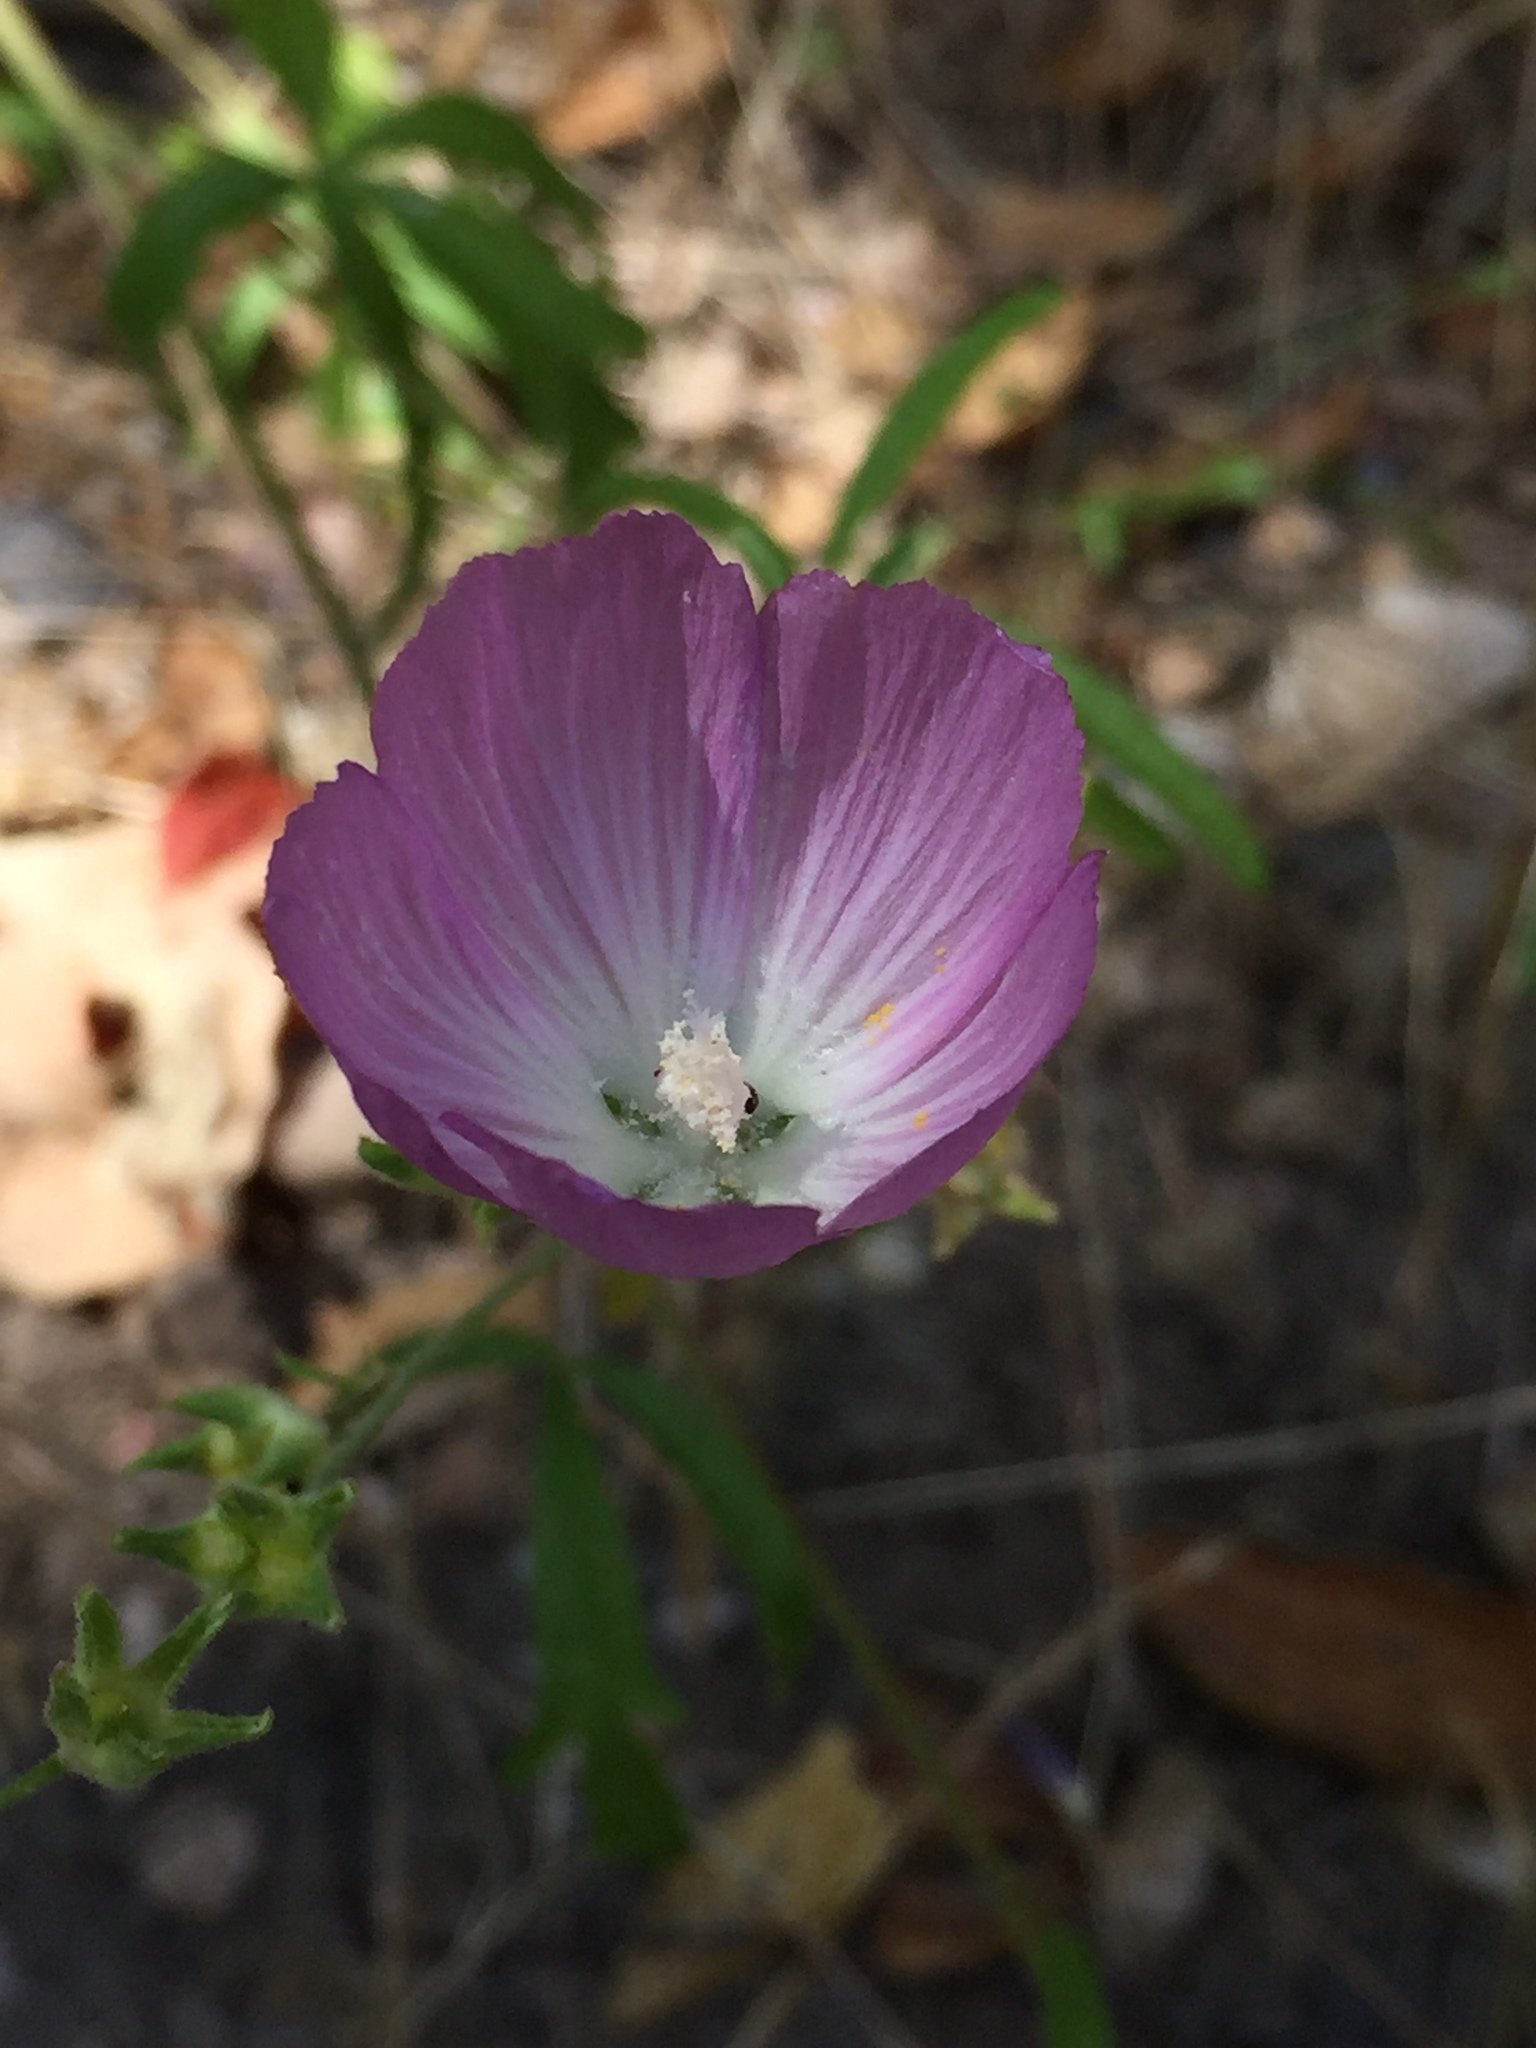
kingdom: Plantae
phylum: Tracheophyta
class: Magnoliopsida
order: Malvales
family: Malvaceae
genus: Sidalcea
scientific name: Sidalcea sparsifolia
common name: Southern checkerbloom
